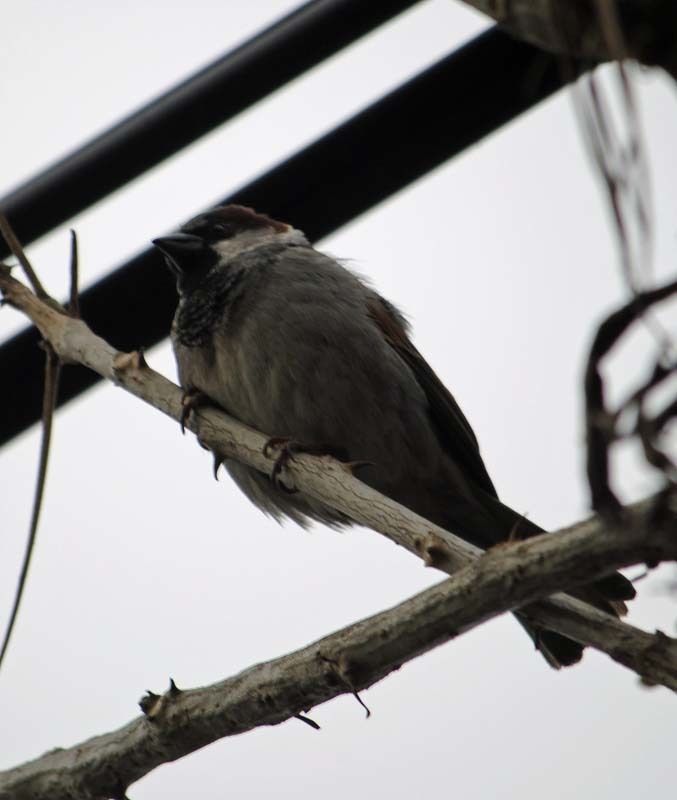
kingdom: Animalia
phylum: Chordata
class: Aves
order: Passeriformes
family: Passeridae
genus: Passer
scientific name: Passer domesticus
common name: House sparrow
